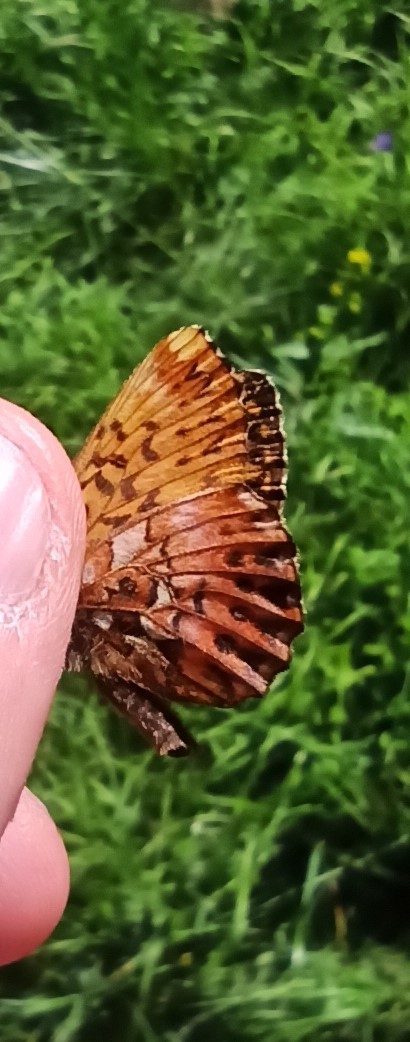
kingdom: Animalia
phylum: Arthropoda
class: Insecta
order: Lepidoptera
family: Nymphalidae
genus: Boloria
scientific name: Boloria titania
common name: Titania's fritillary
